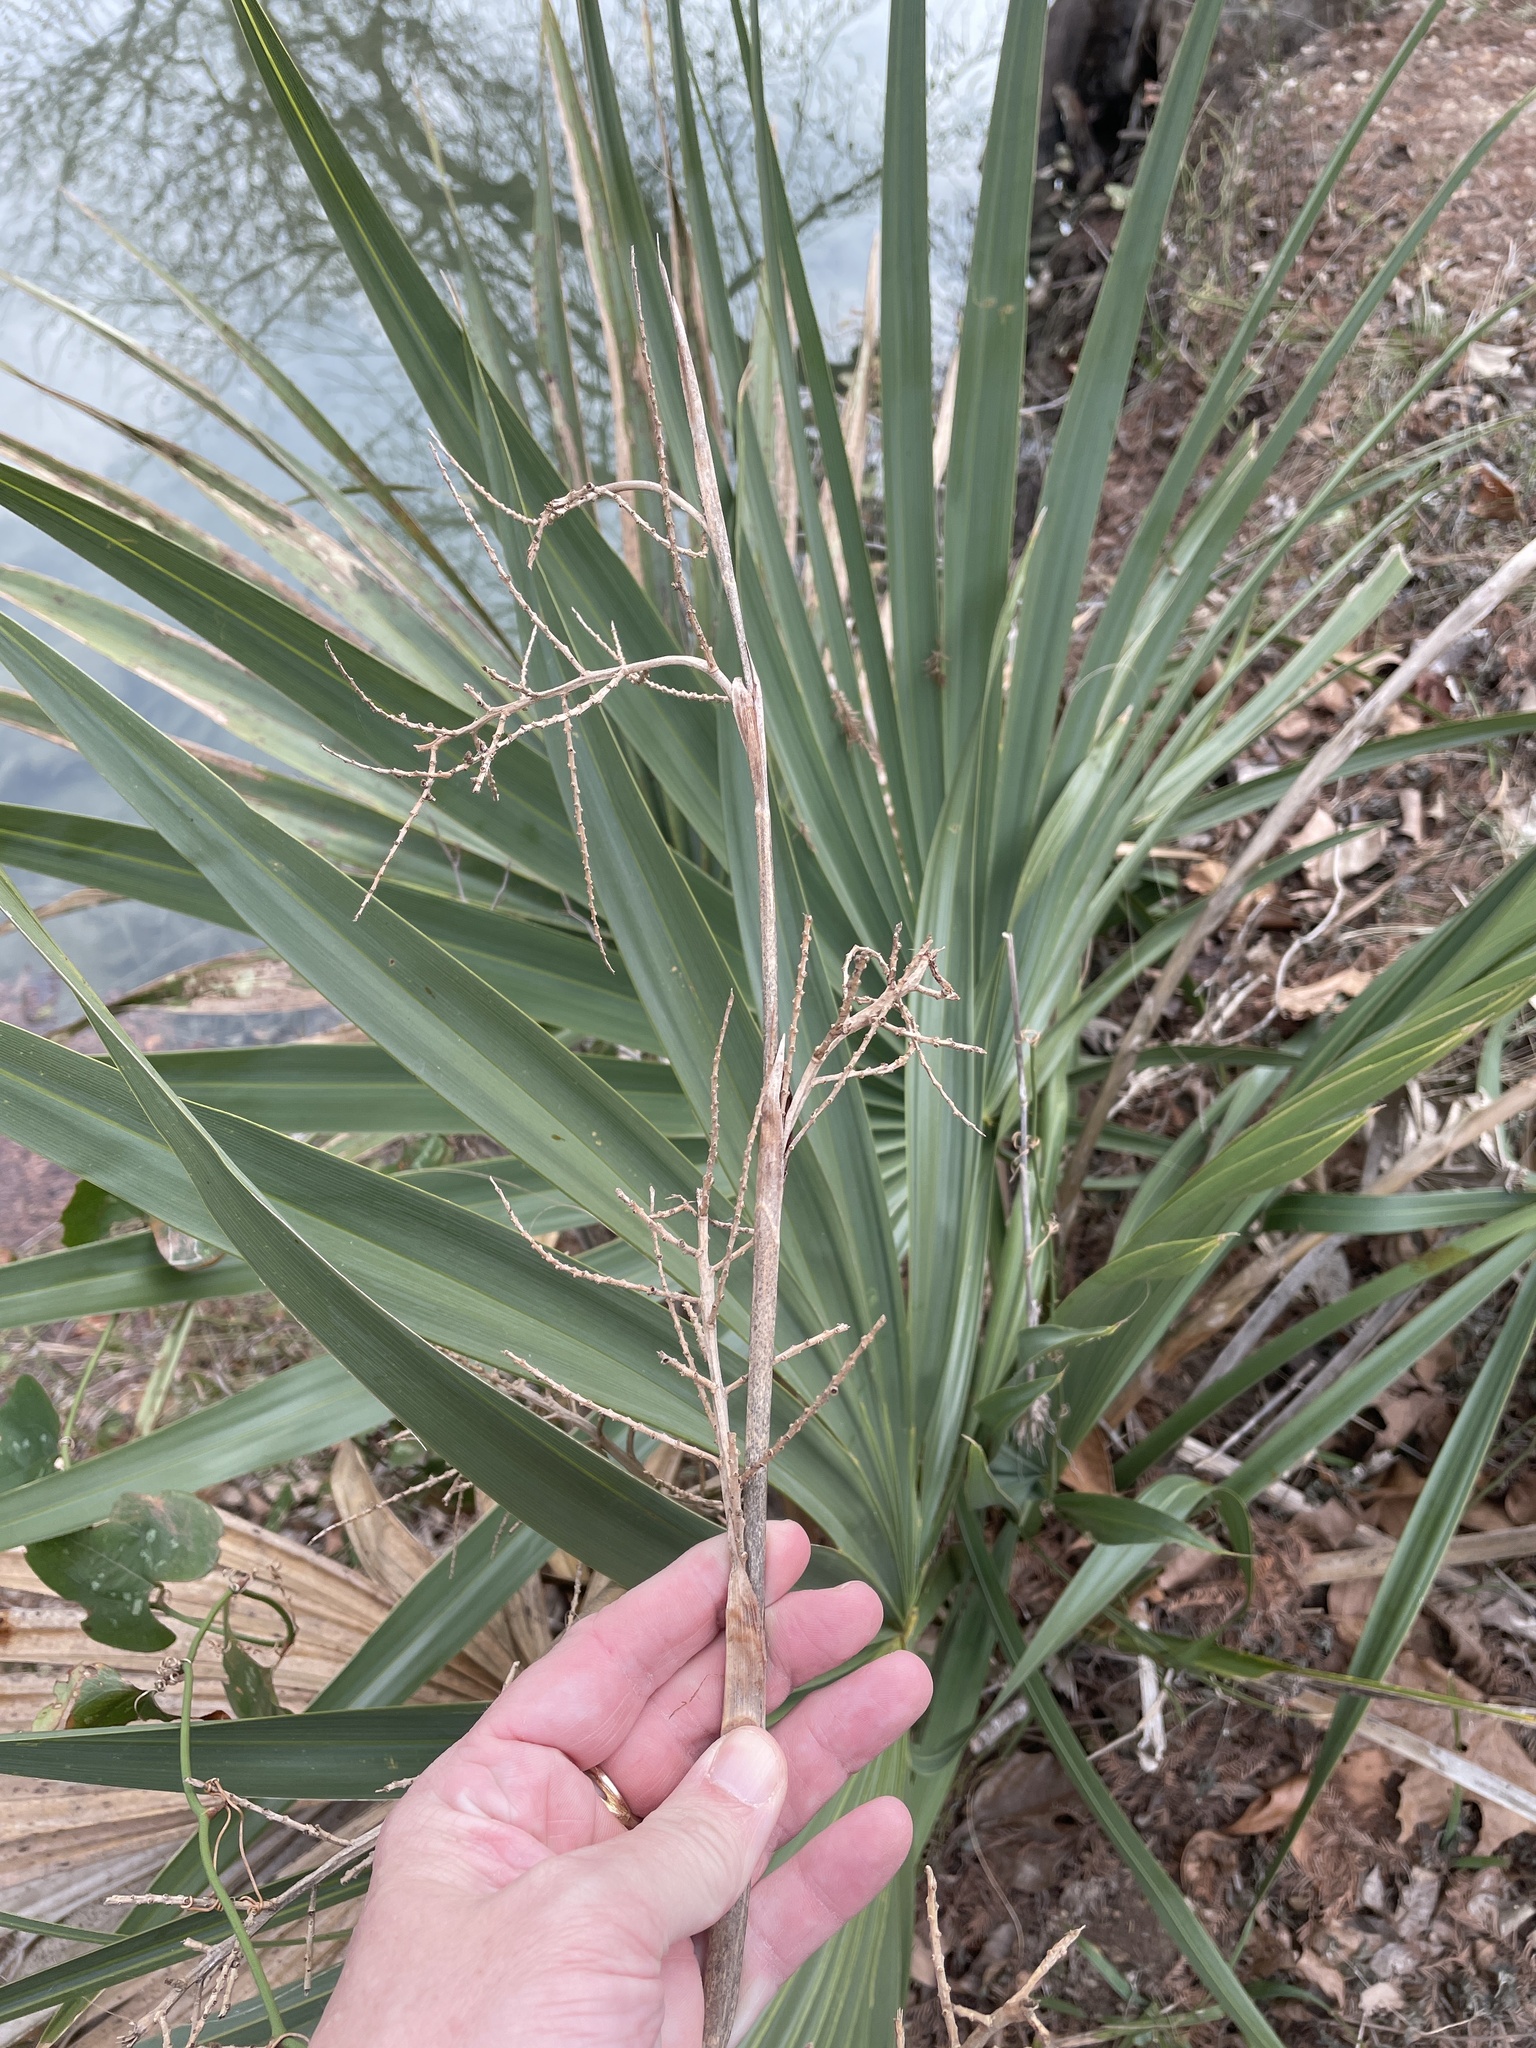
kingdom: Plantae
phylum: Tracheophyta
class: Liliopsida
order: Arecales
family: Arecaceae
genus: Sabal
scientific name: Sabal minor
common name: Dwarf palmetto
